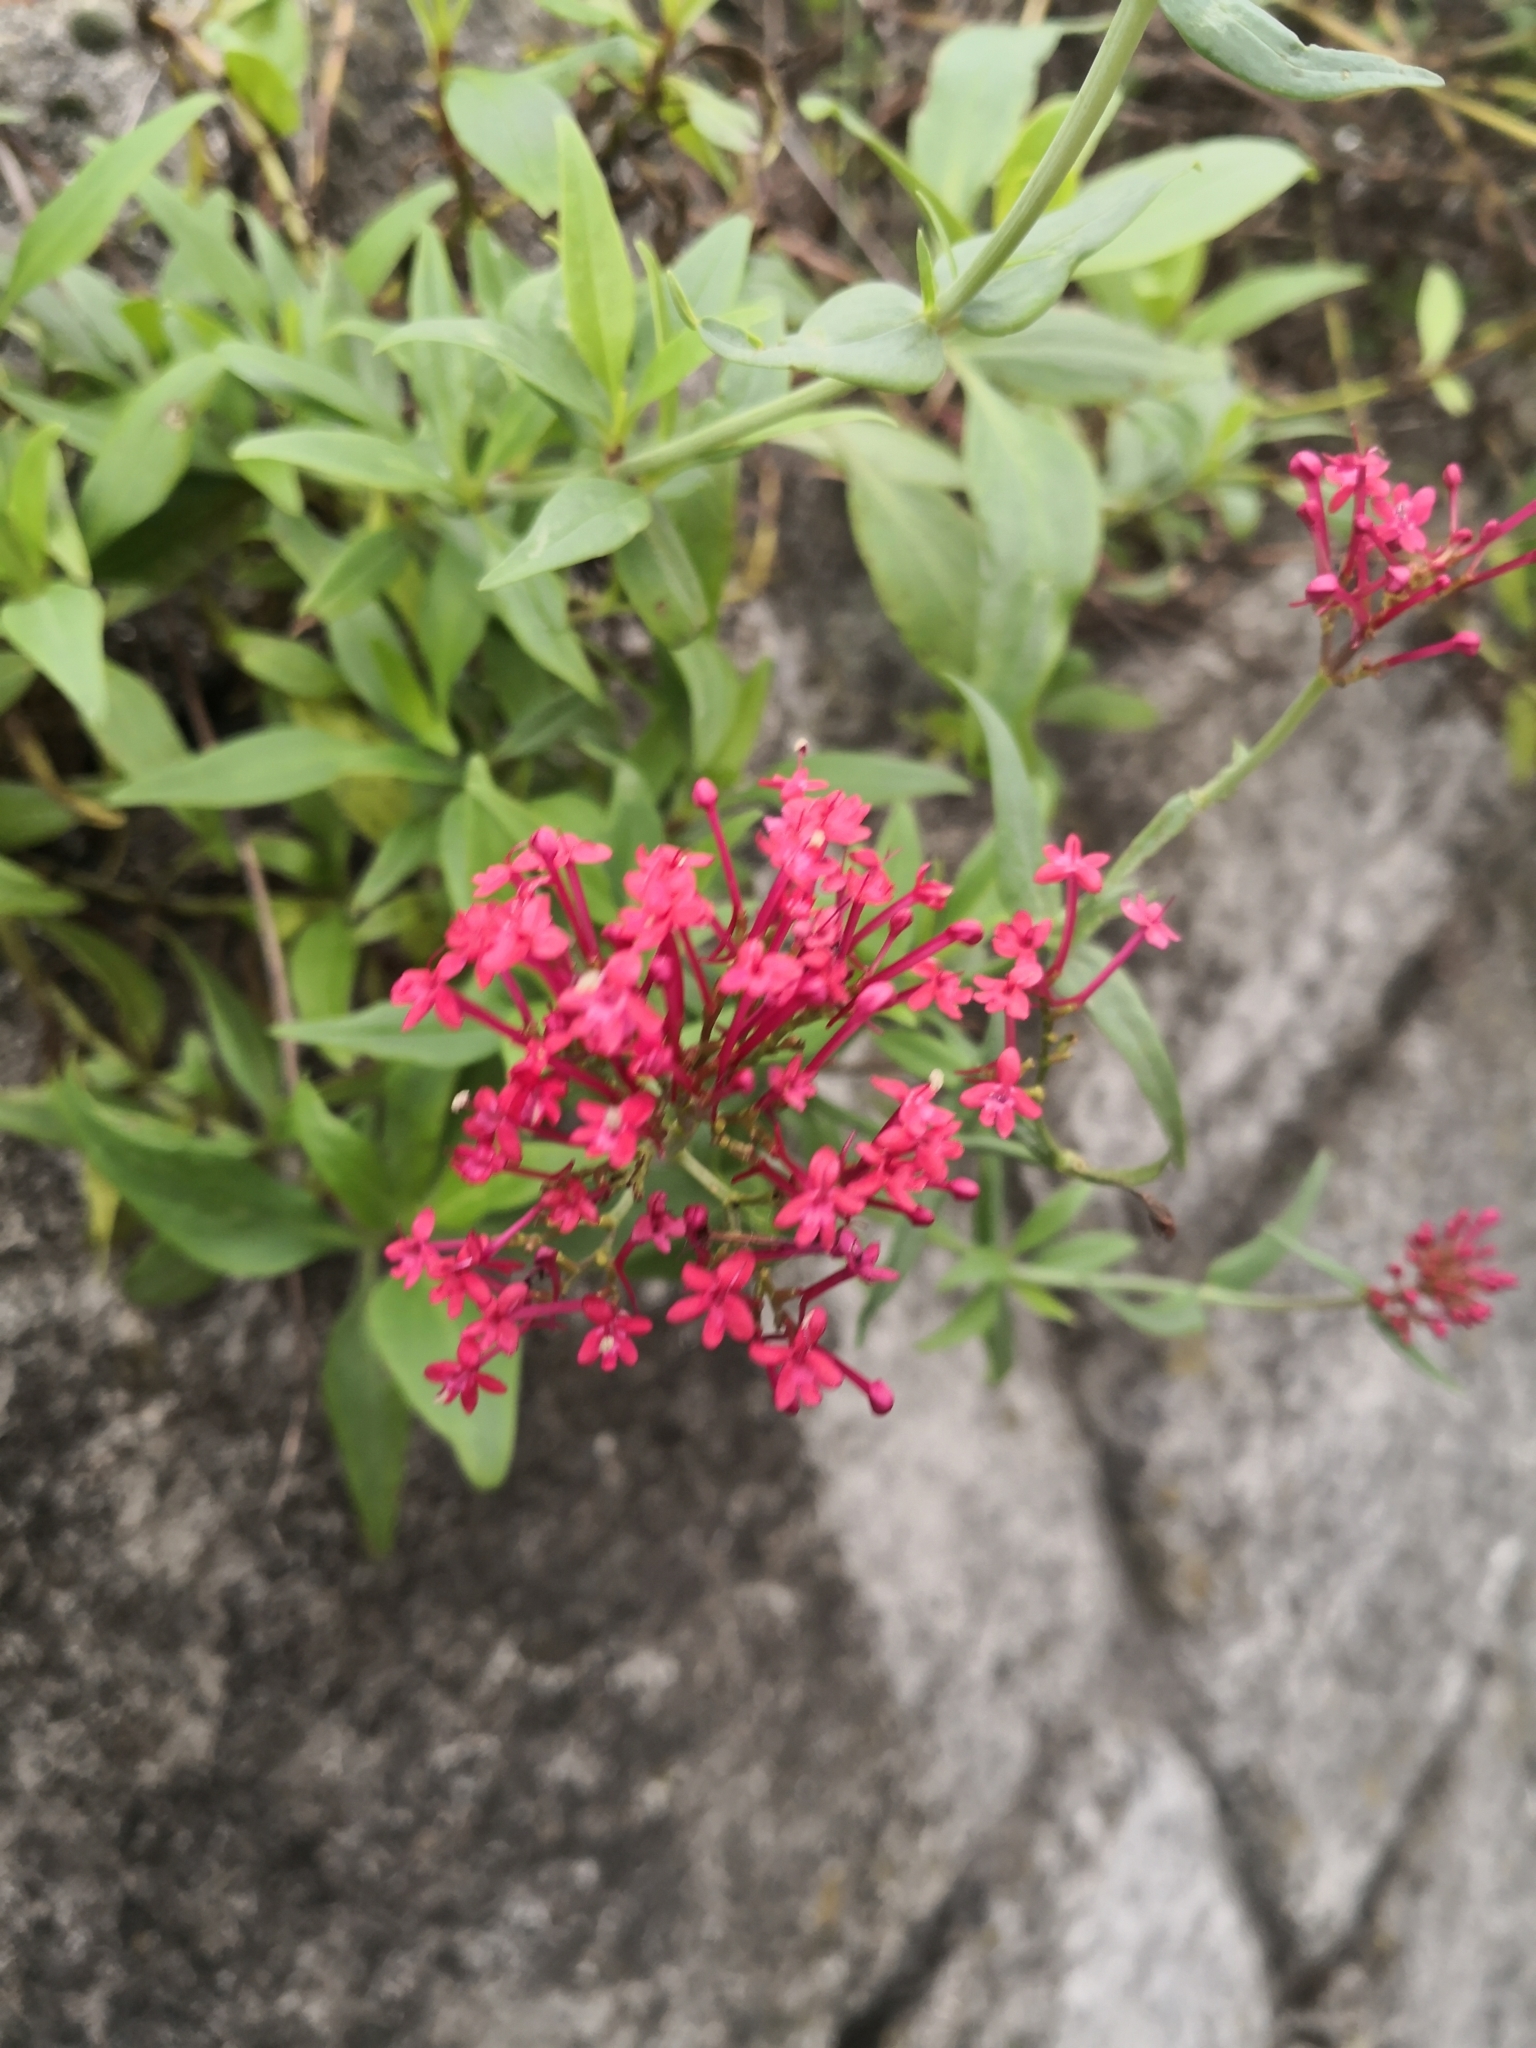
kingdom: Plantae
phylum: Tracheophyta
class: Magnoliopsida
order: Dipsacales
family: Caprifoliaceae
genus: Centranthus
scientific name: Centranthus ruber
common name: Red valerian
